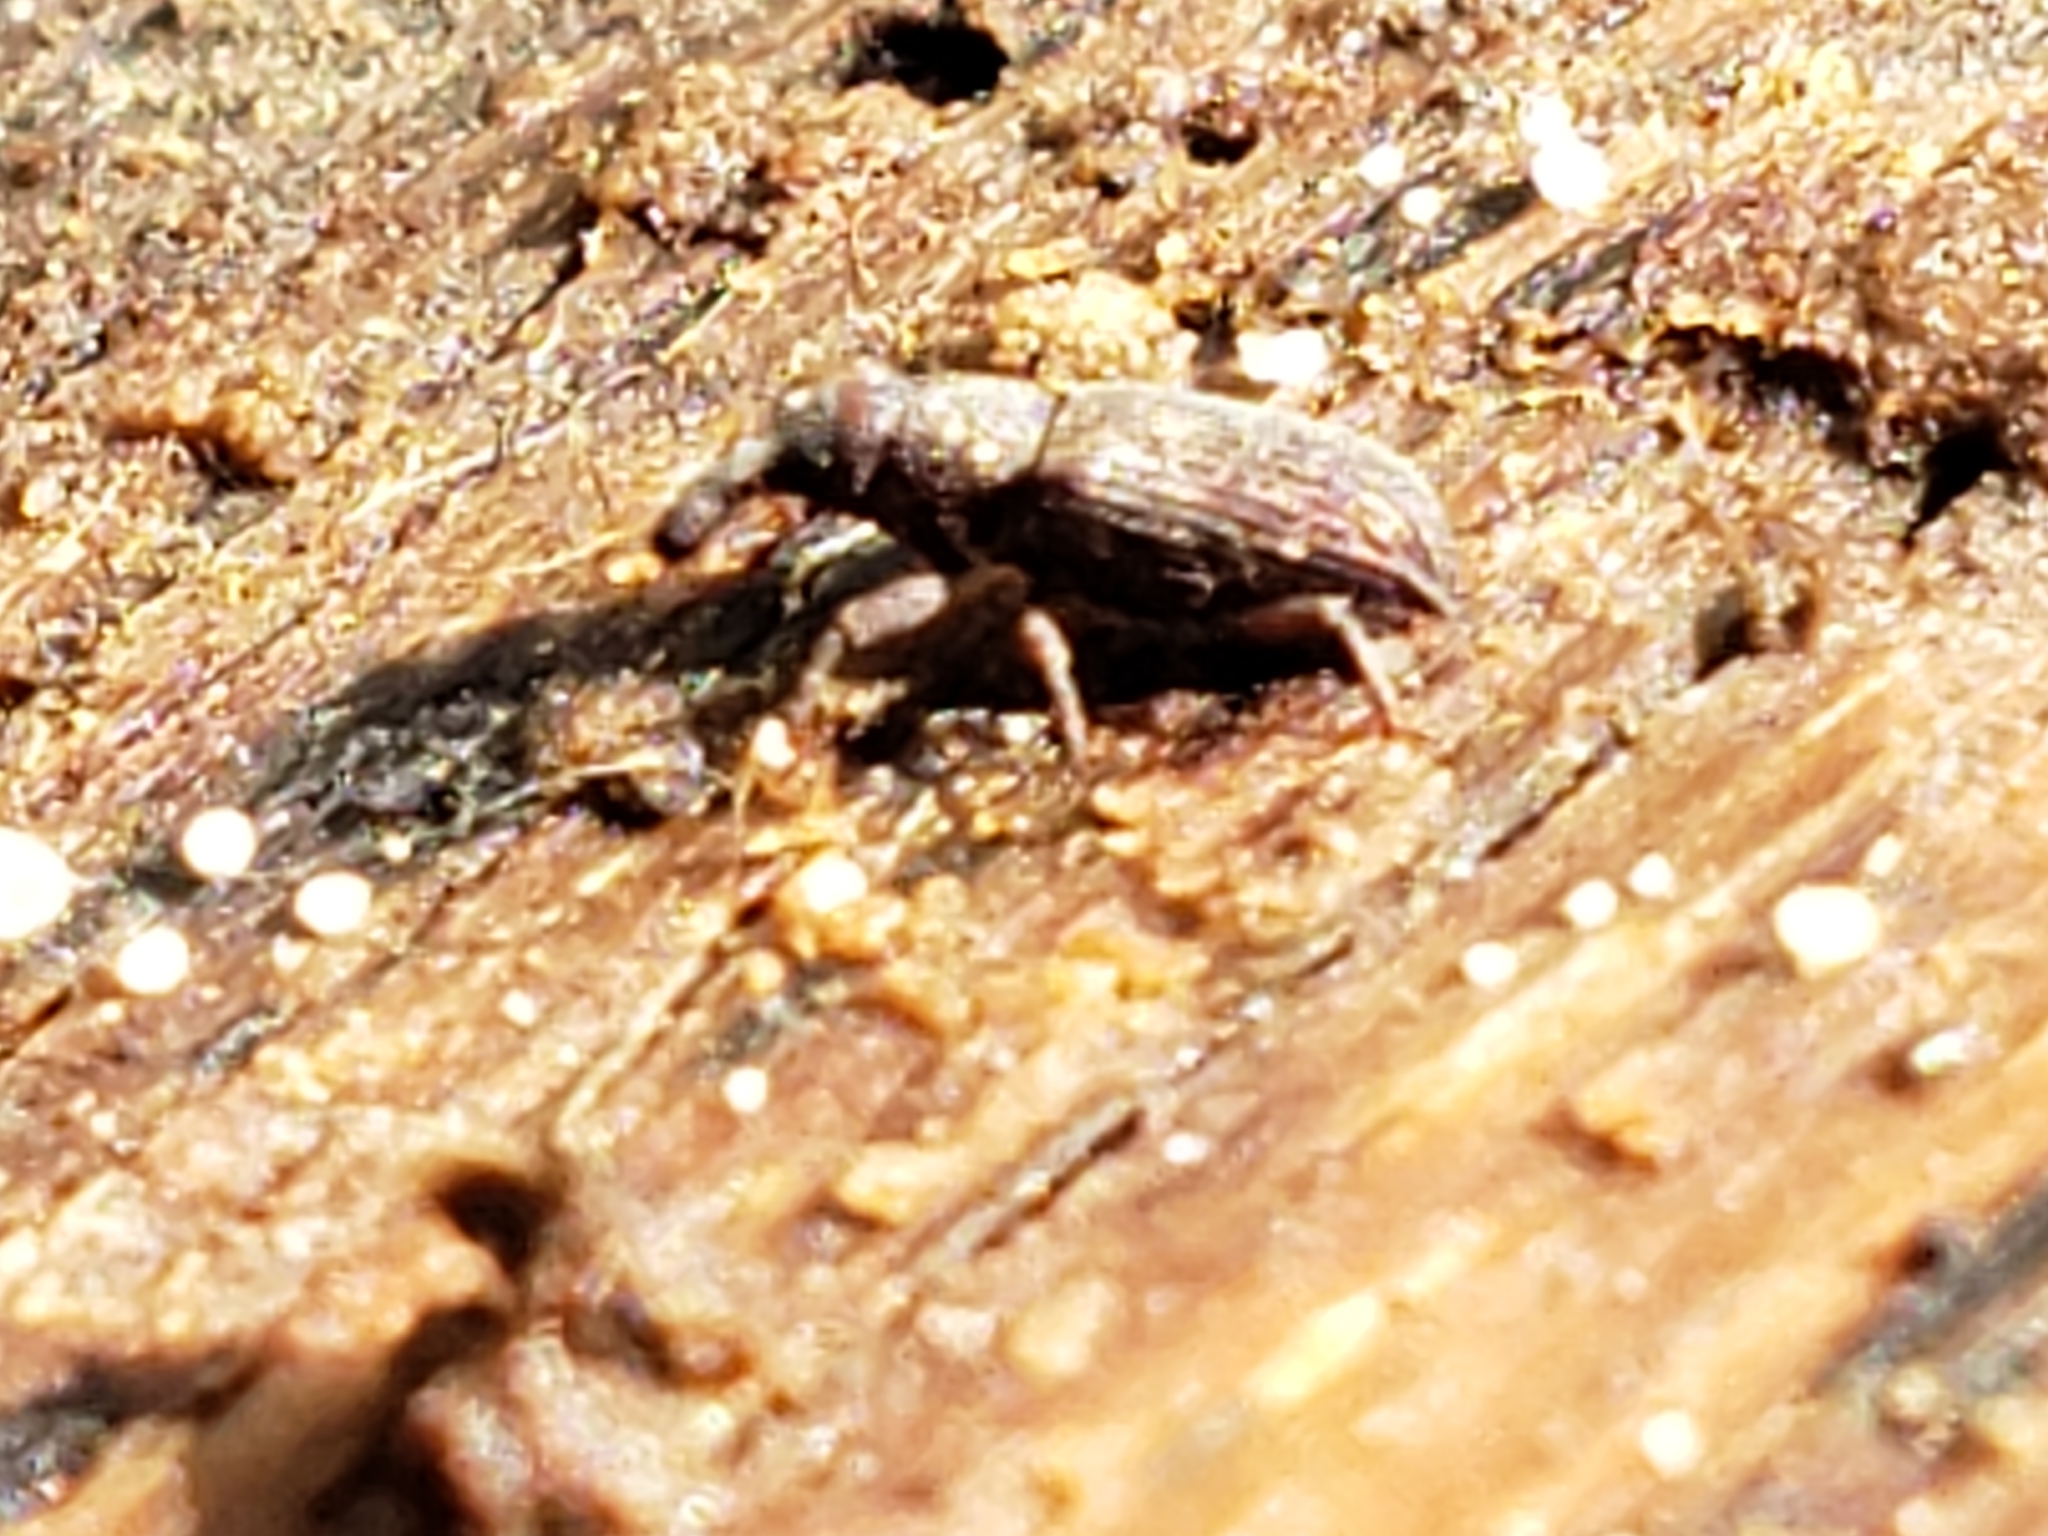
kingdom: Animalia
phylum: Arthropoda
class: Insecta
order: Coleoptera
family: Dryophthoridae
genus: Dryophthorus
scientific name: Dryophthorus americanus
